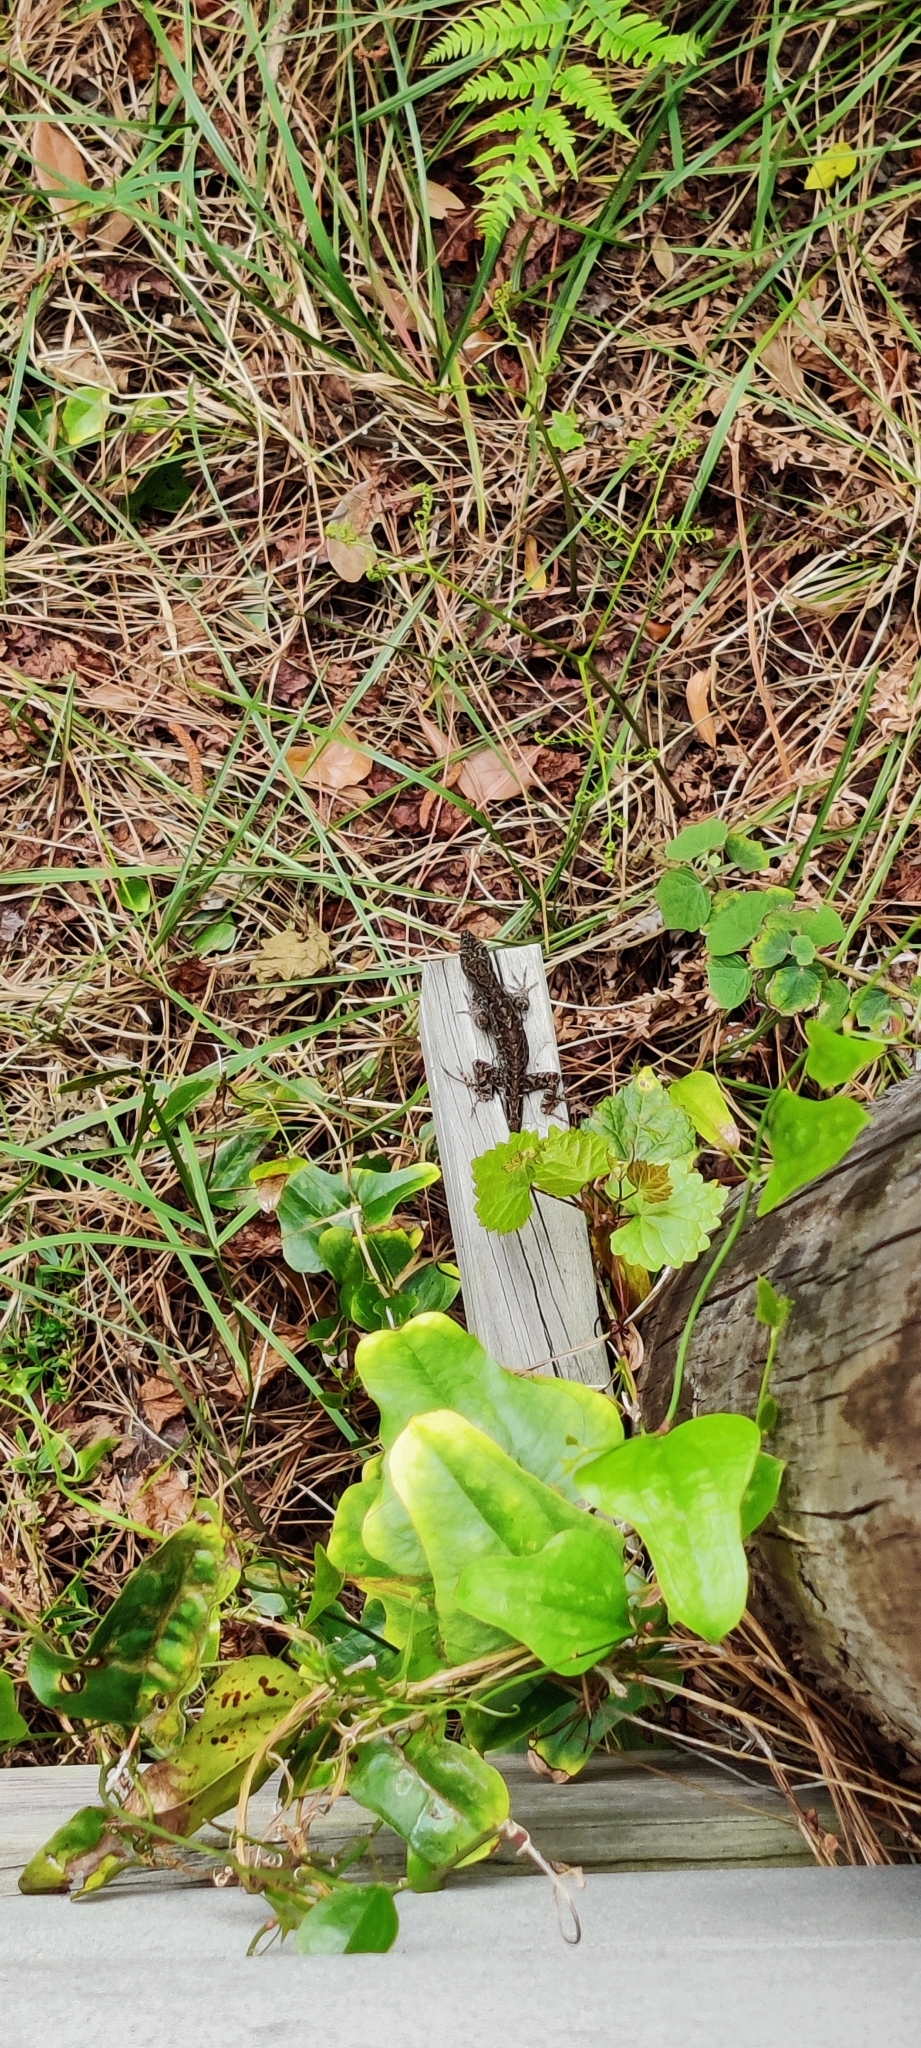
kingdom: Animalia
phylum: Chordata
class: Squamata
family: Dactyloidae
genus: Anolis
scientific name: Anolis sagrei
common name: Brown anole
